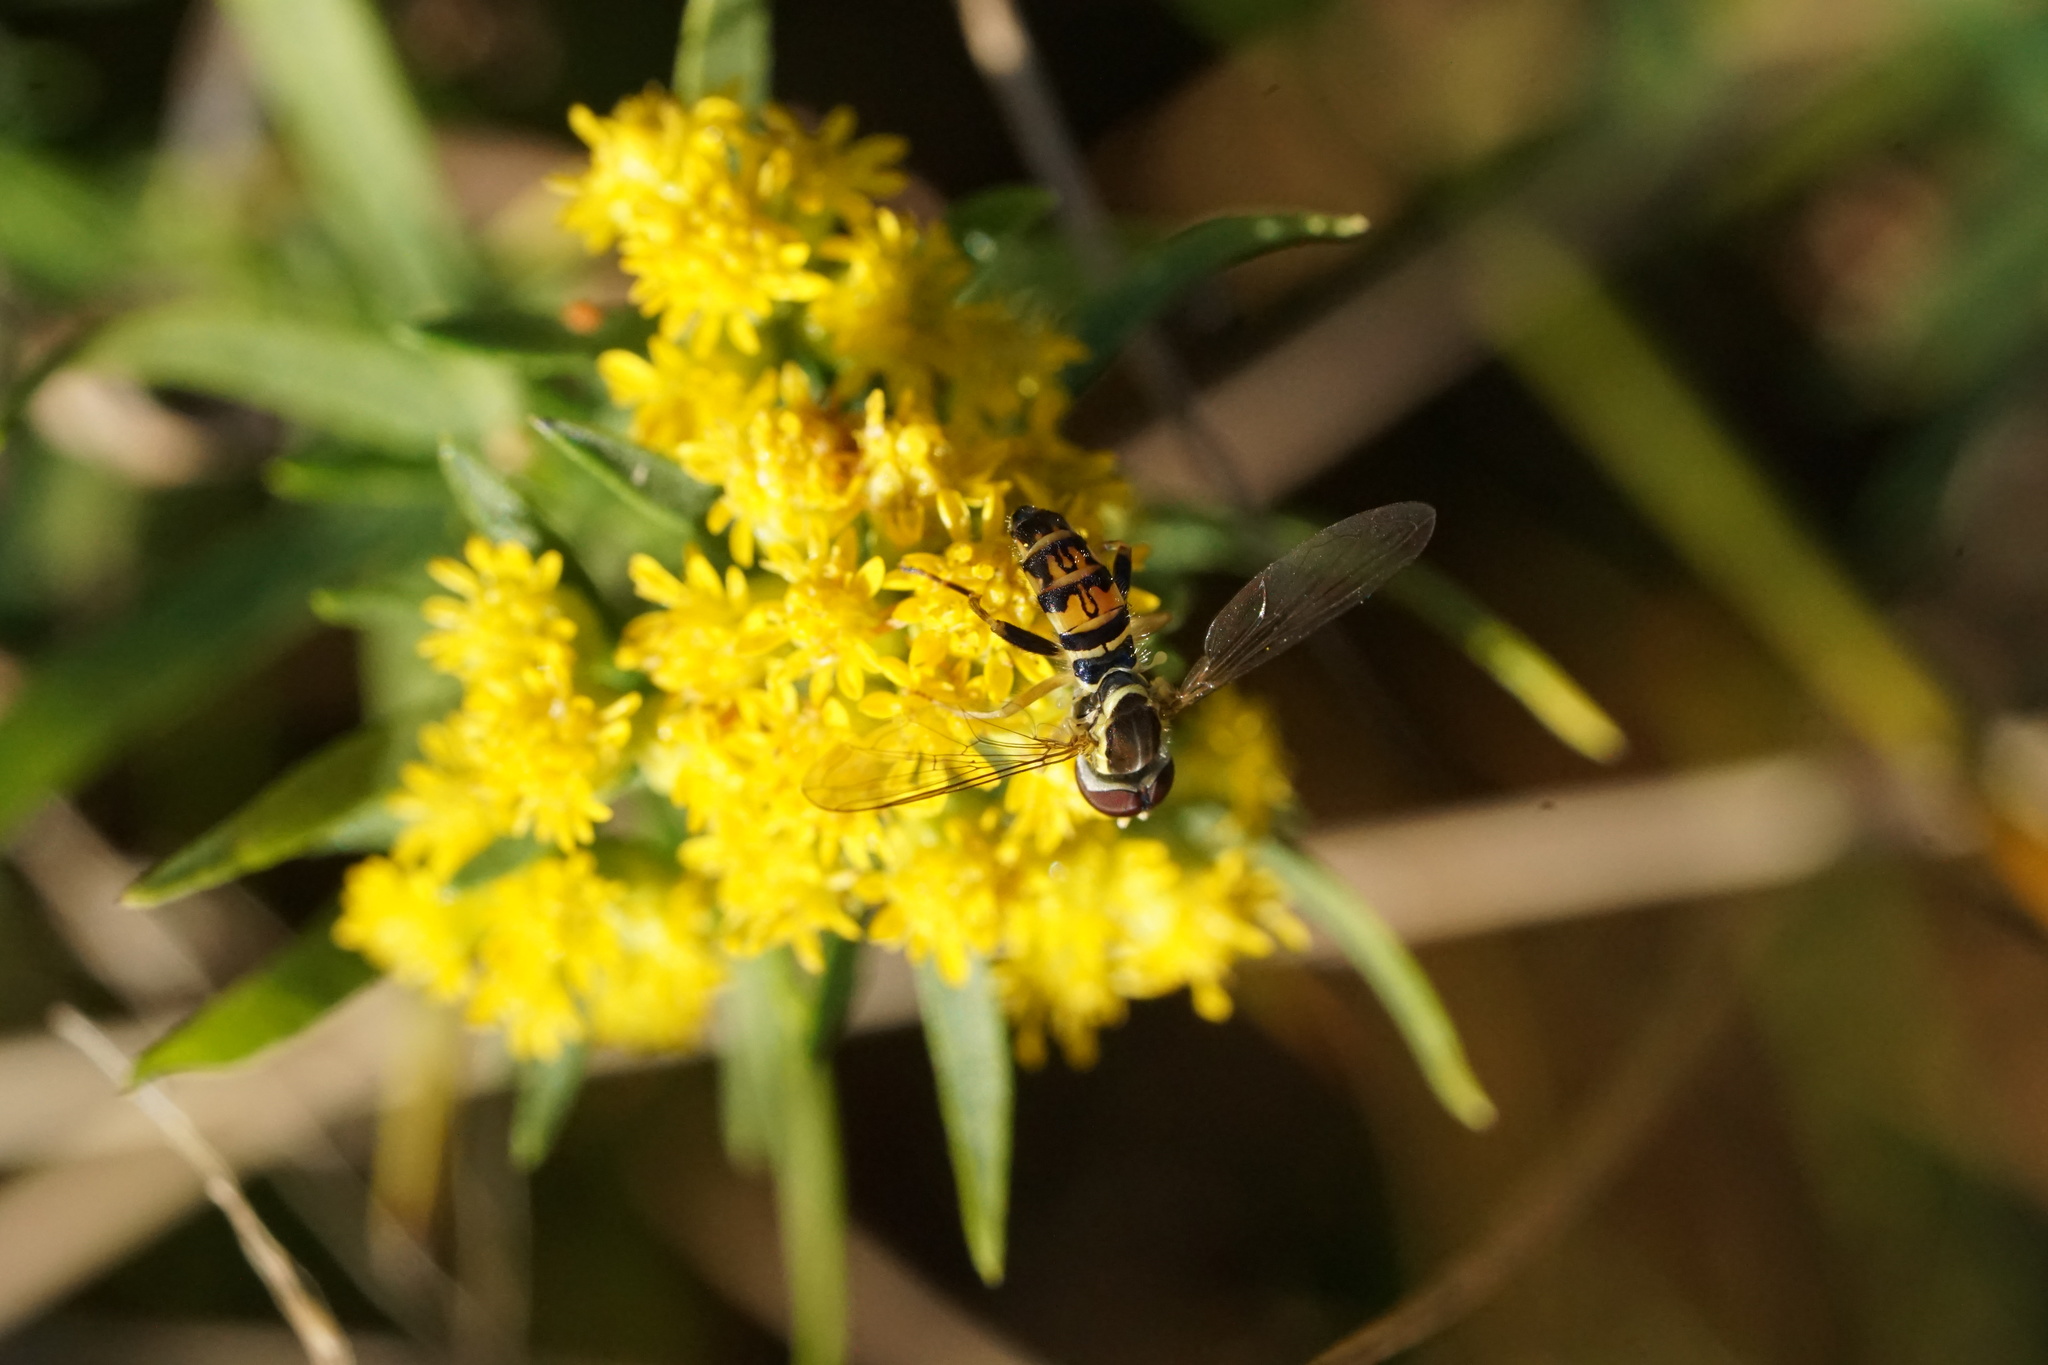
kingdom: Animalia
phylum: Arthropoda
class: Insecta
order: Diptera
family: Syrphidae
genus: Toxomerus
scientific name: Toxomerus geminatus
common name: Eastern calligrapher
